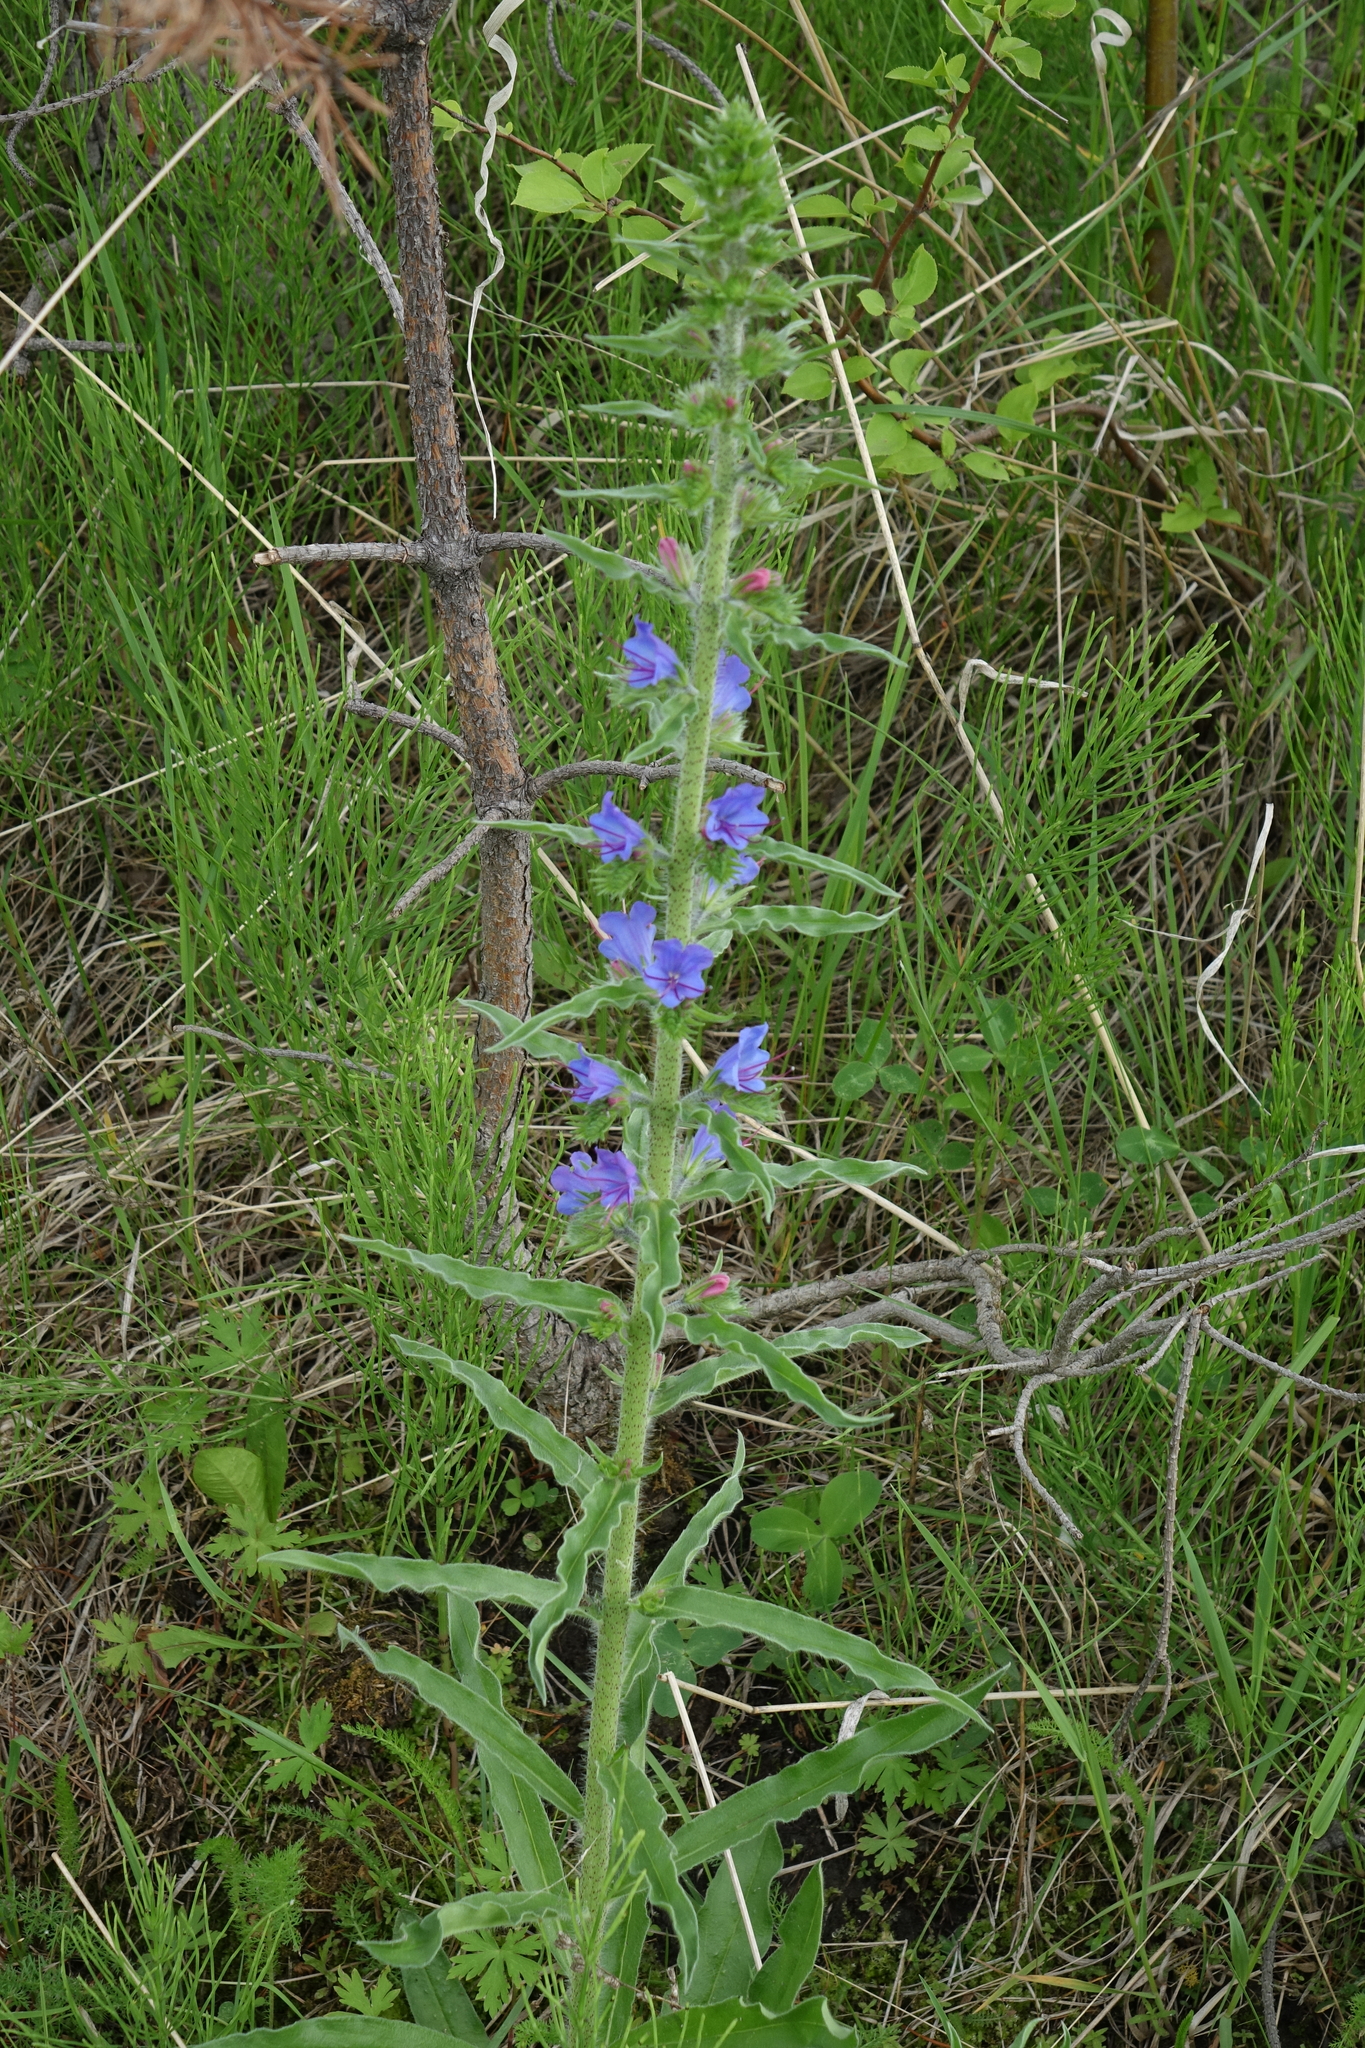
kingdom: Plantae
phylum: Tracheophyta
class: Magnoliopsida
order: Boraginales
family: Boraginaceae
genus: Echium
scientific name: Echium vulgare
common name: Common viper's bugloss
